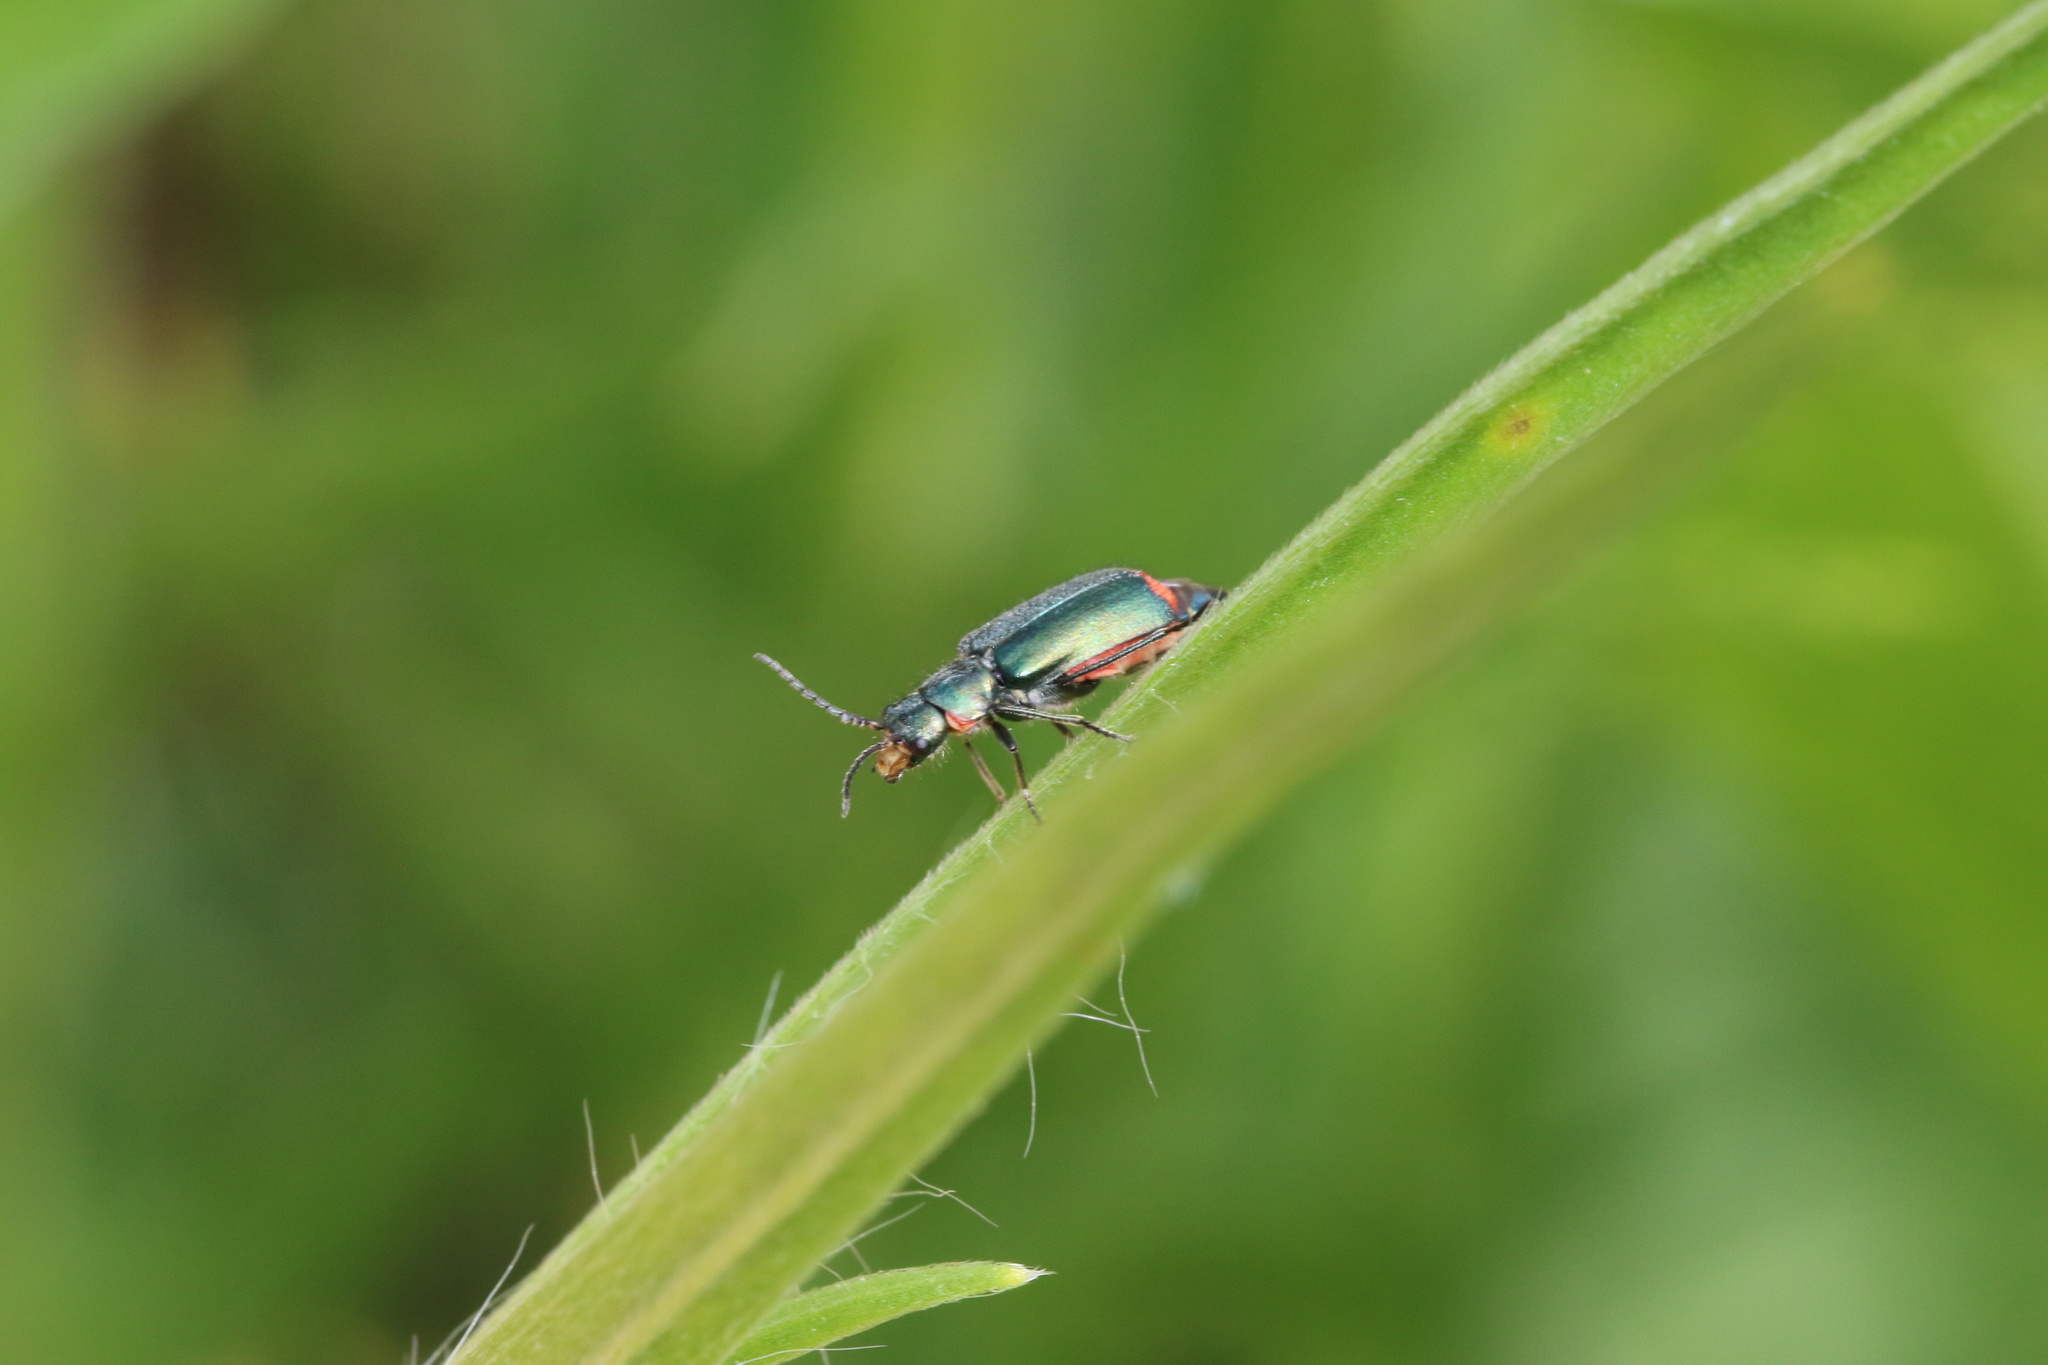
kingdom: Animalia
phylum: Arthropoda
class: Insecta
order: Coleoptera
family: Melyridae
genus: Malachius
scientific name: Malachius bipustulatus
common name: Malachite beetle
